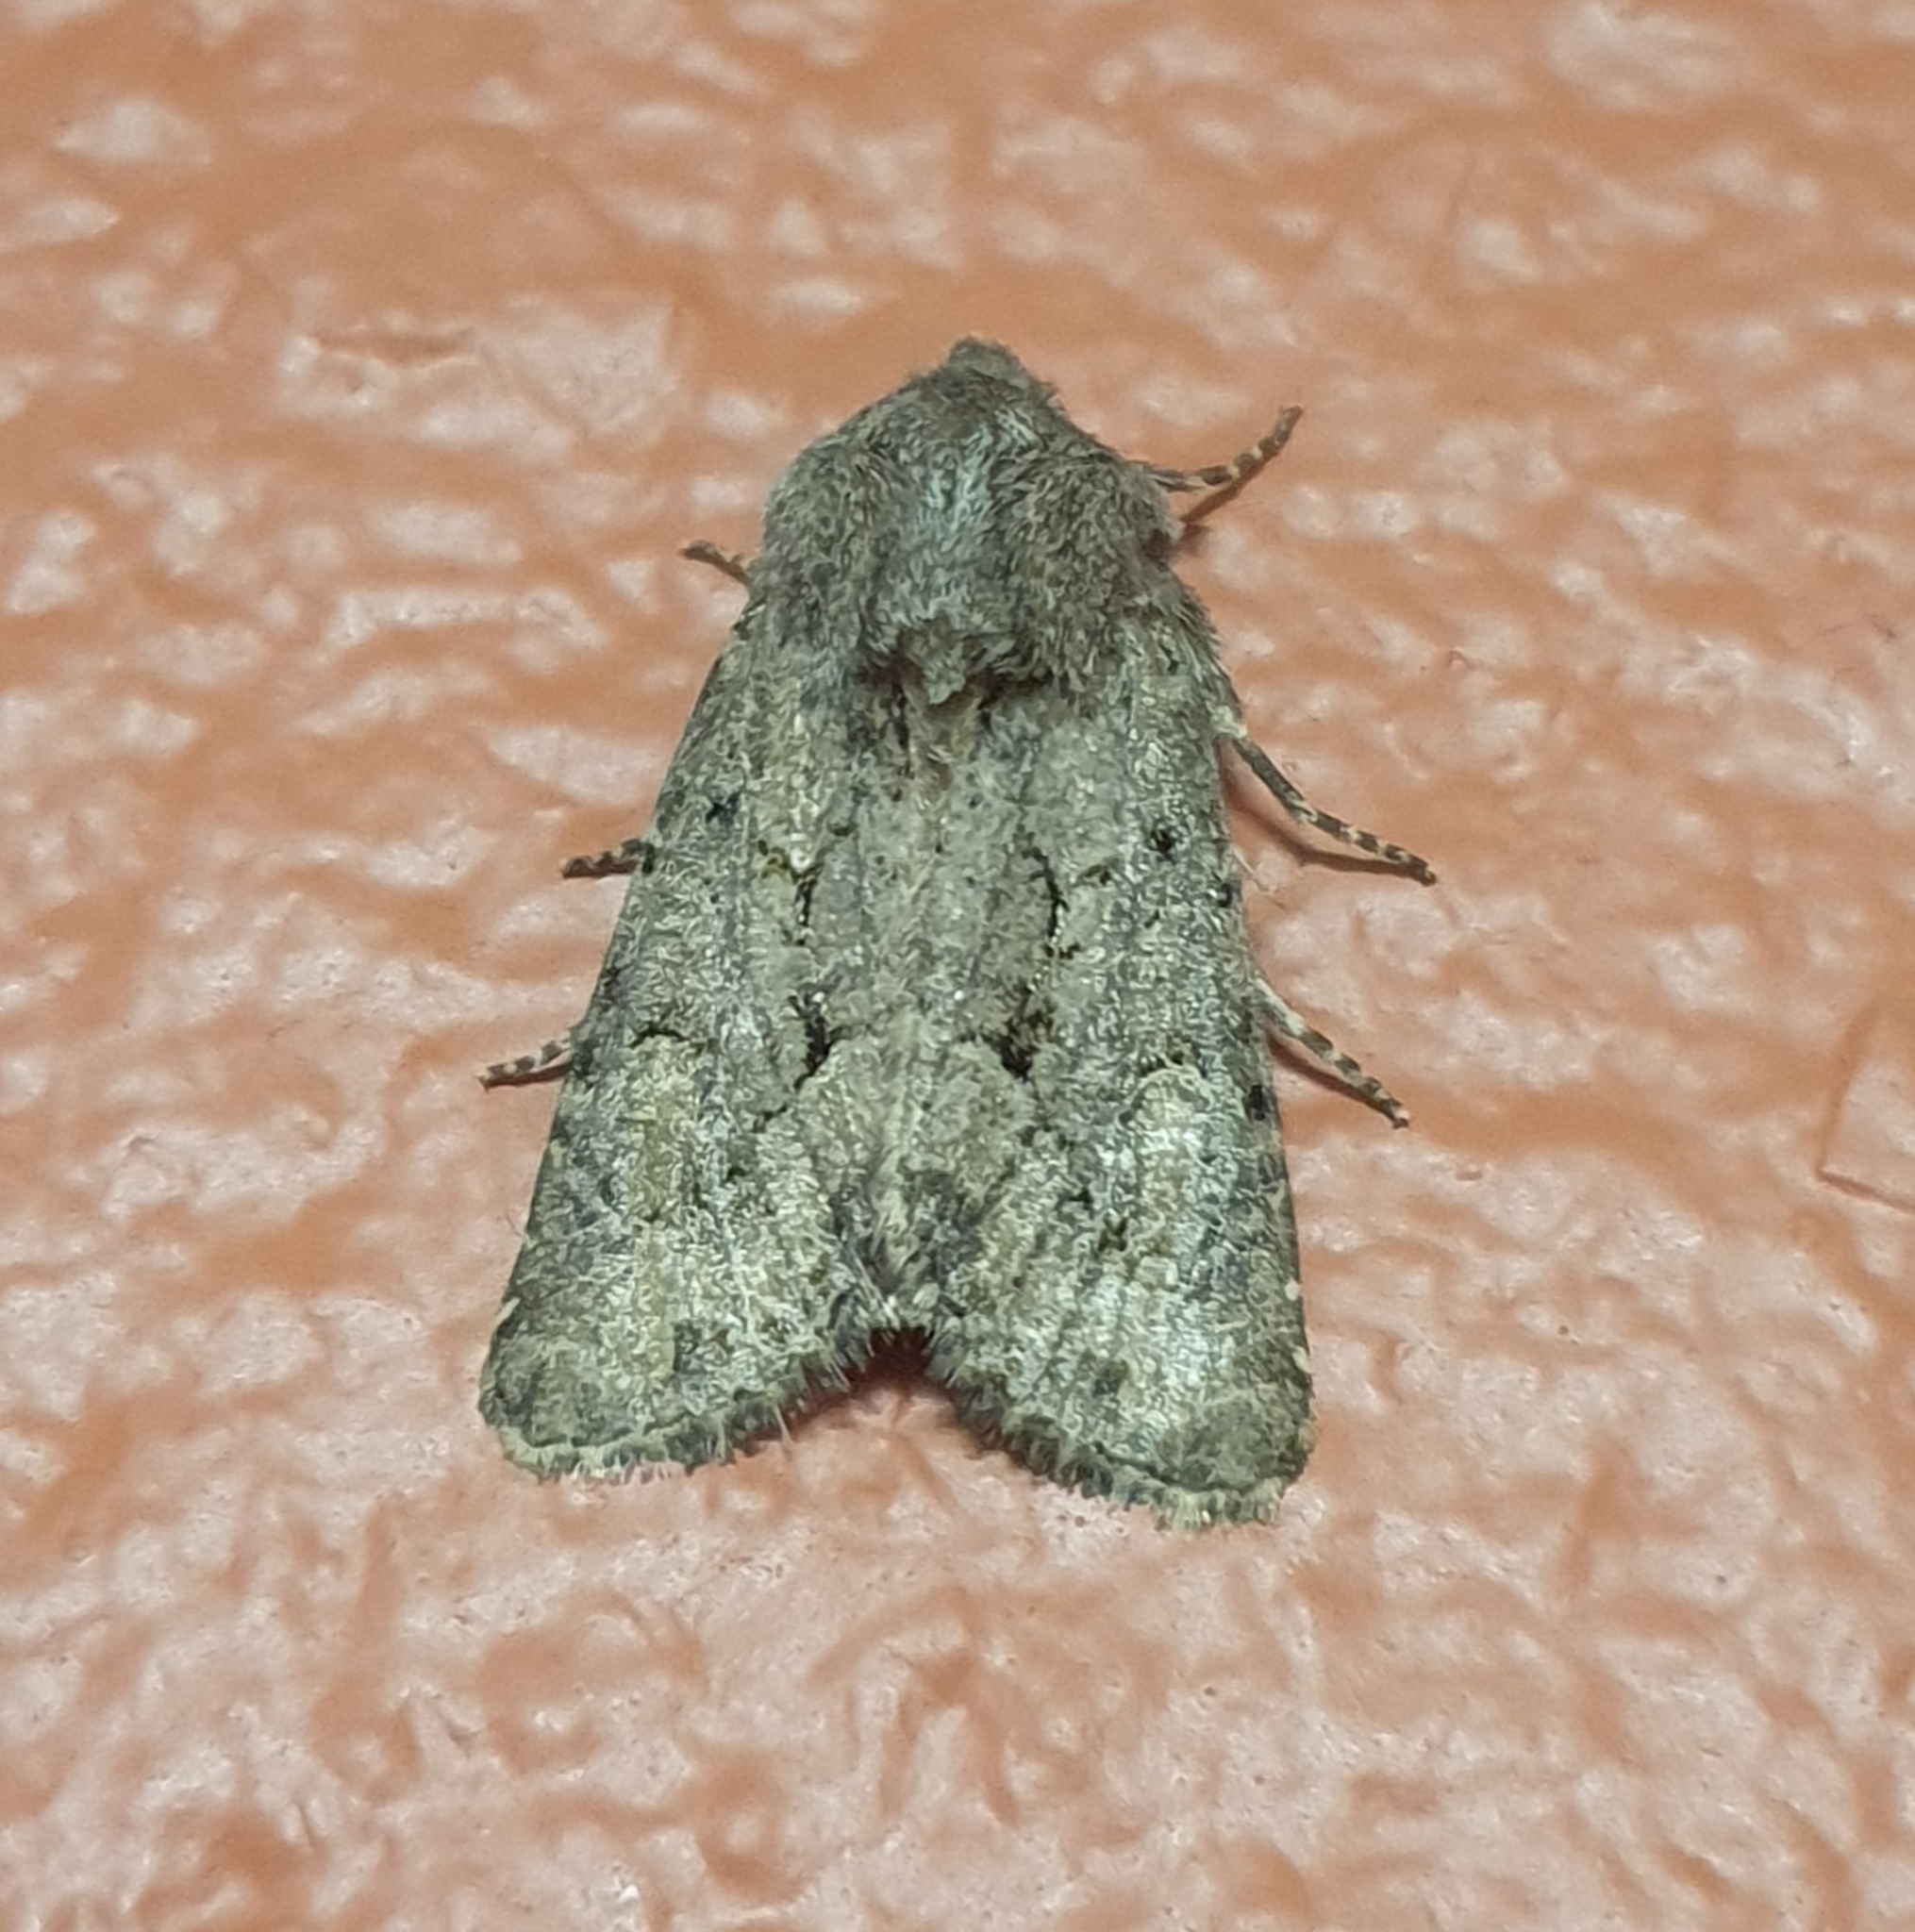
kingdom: Animalia
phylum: Arthropoda
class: Insecta
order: Lepidoptera
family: Noctuidae
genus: Luperina
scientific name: Luperina testacea
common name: Flounced rustic
